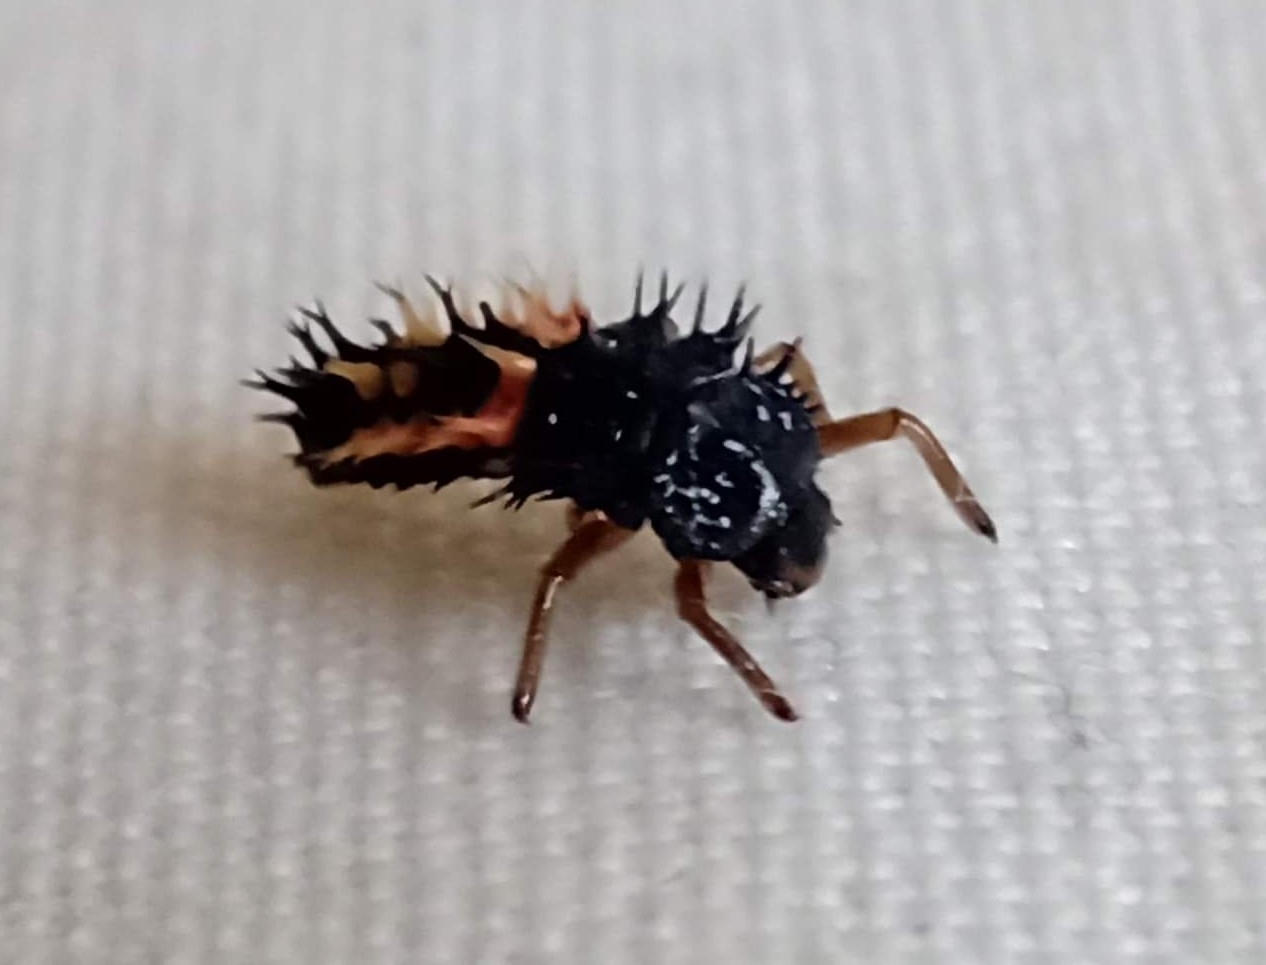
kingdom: Animalia
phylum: Arthropoda
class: Insecta
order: Coleoptera
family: Coccinellidae
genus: Harmonia
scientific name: Harmonia axyridis
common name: Harlequin ladybird
